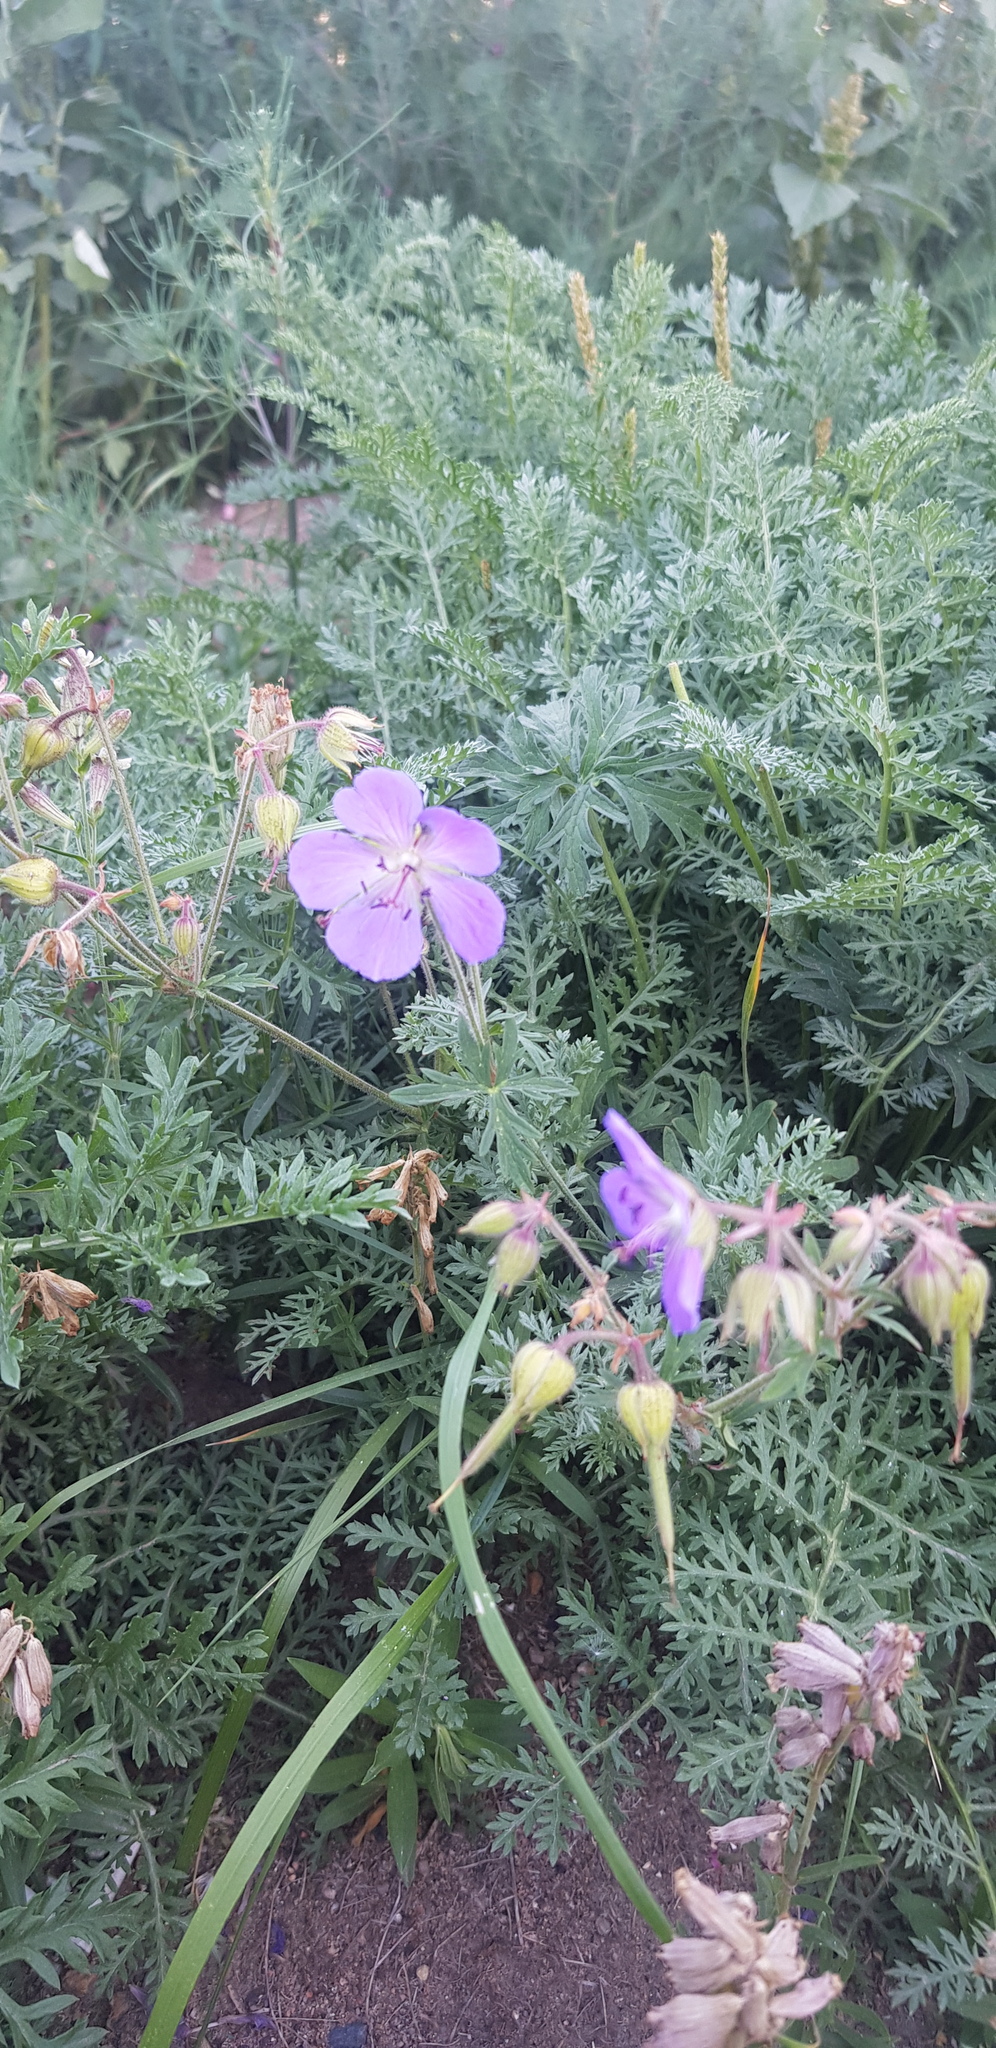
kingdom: Plantae
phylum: Tracheophyta
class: Magnoliopsida
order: Geraniales
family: Geraniaceae
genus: Geranium
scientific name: Geranium pratense
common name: Meadow crane's-bill
